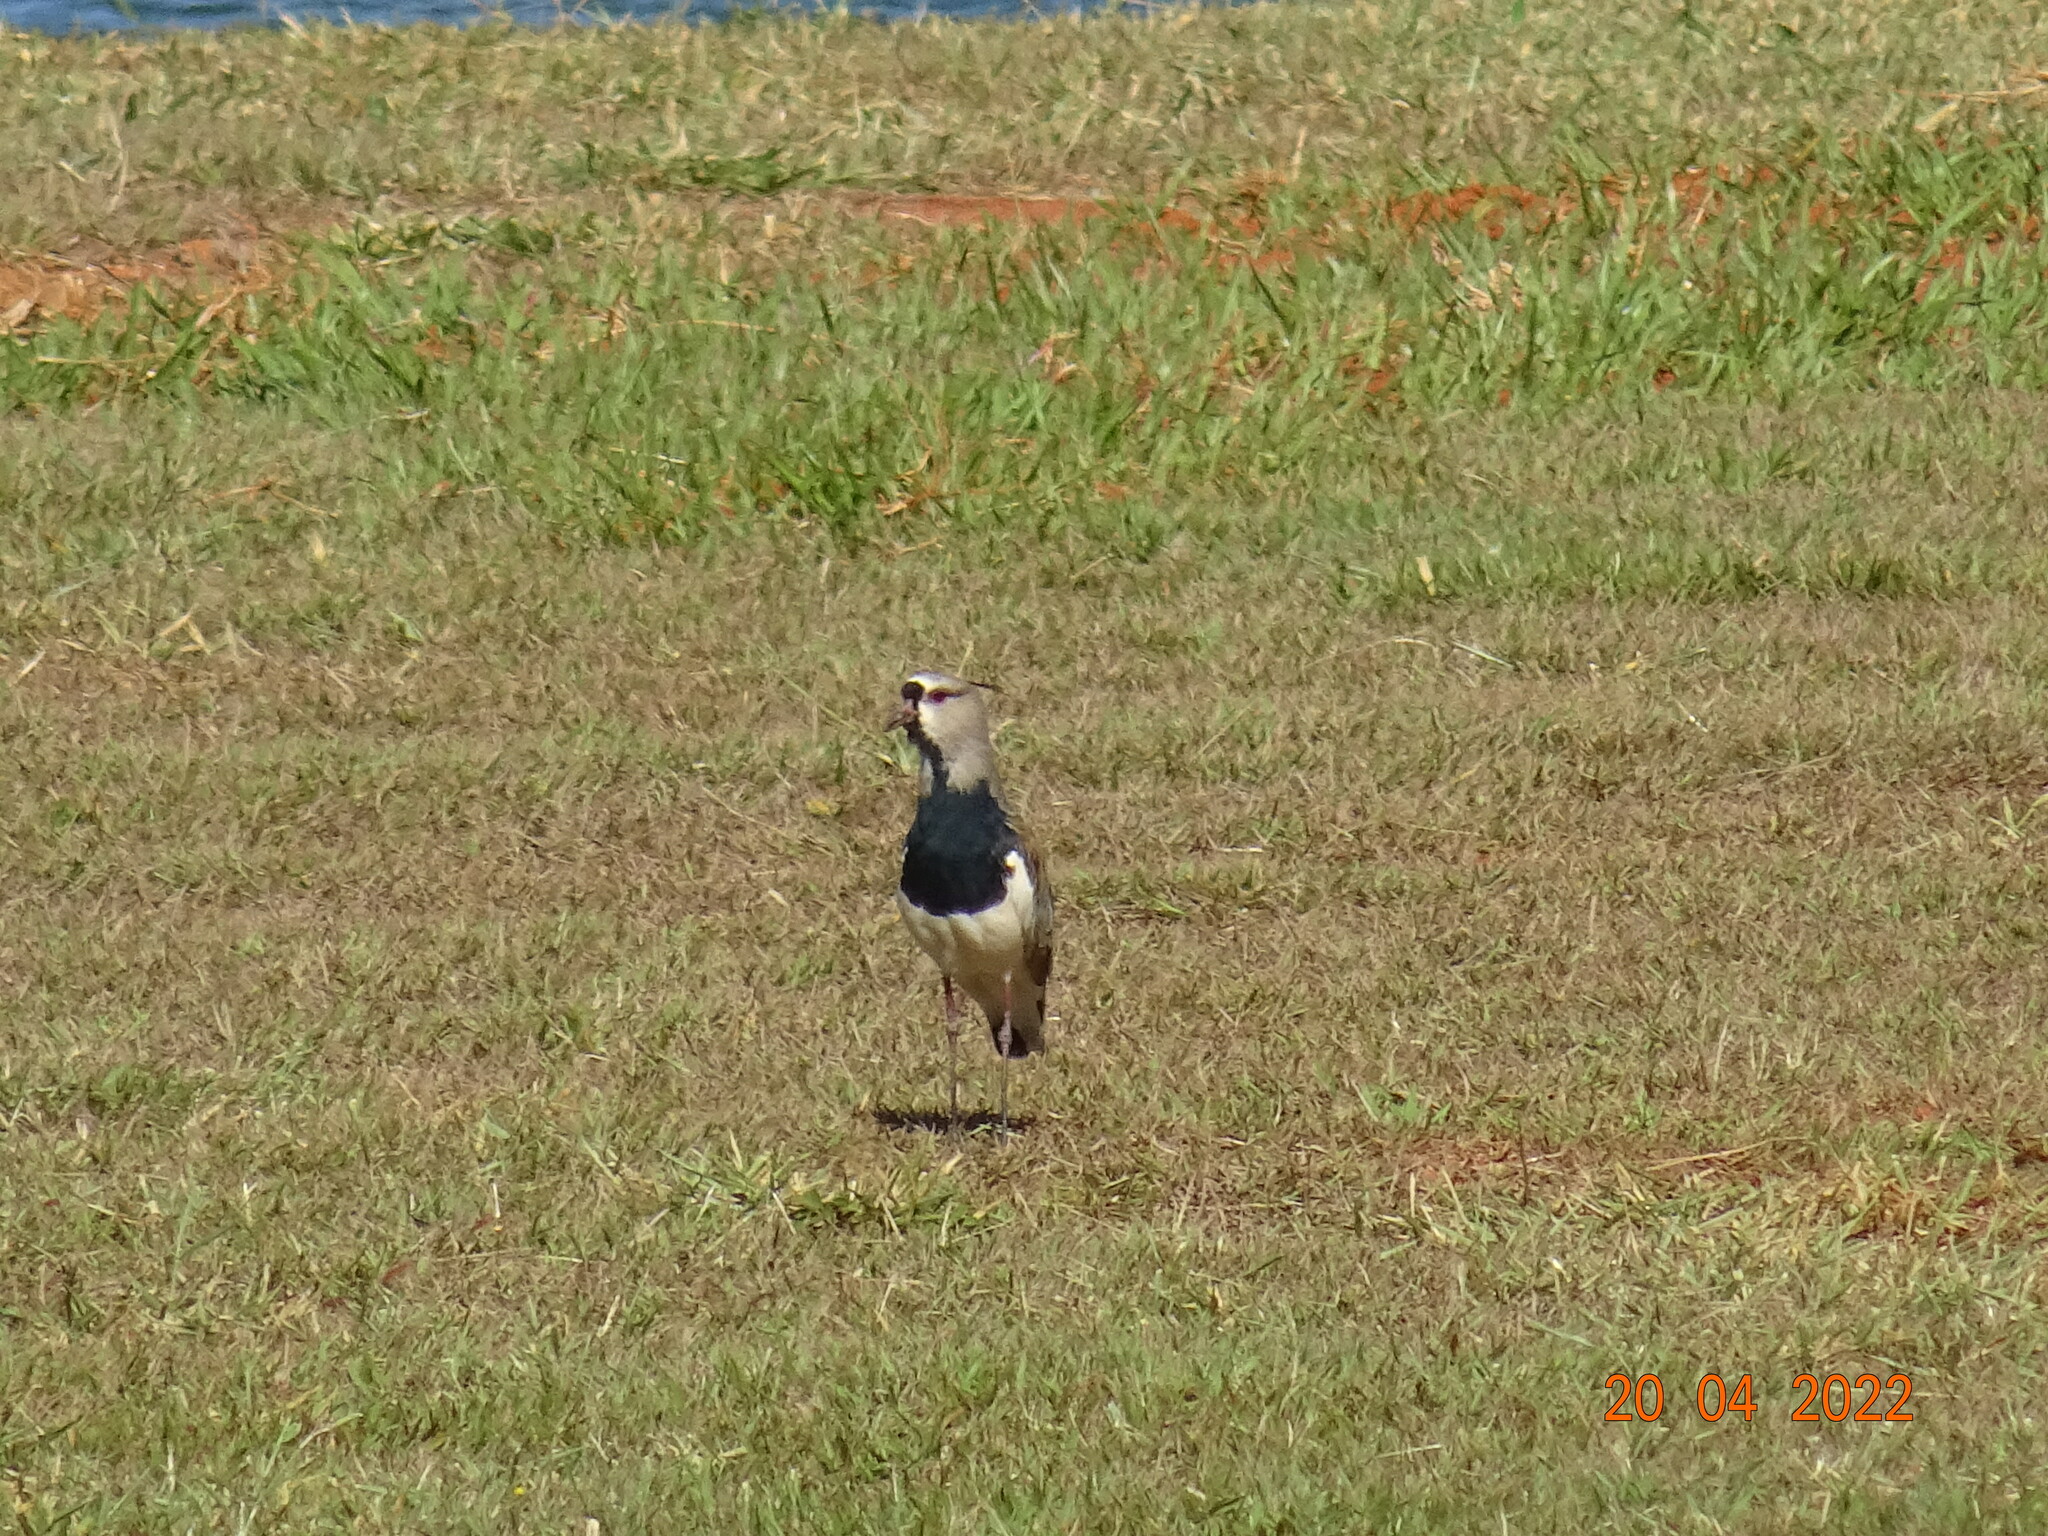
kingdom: Animalia
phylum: Chordata
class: Aves
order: Charadriiformes
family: Charadriidae
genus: Vanellus
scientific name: Vanellus chilensis
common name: Southern lapwing
